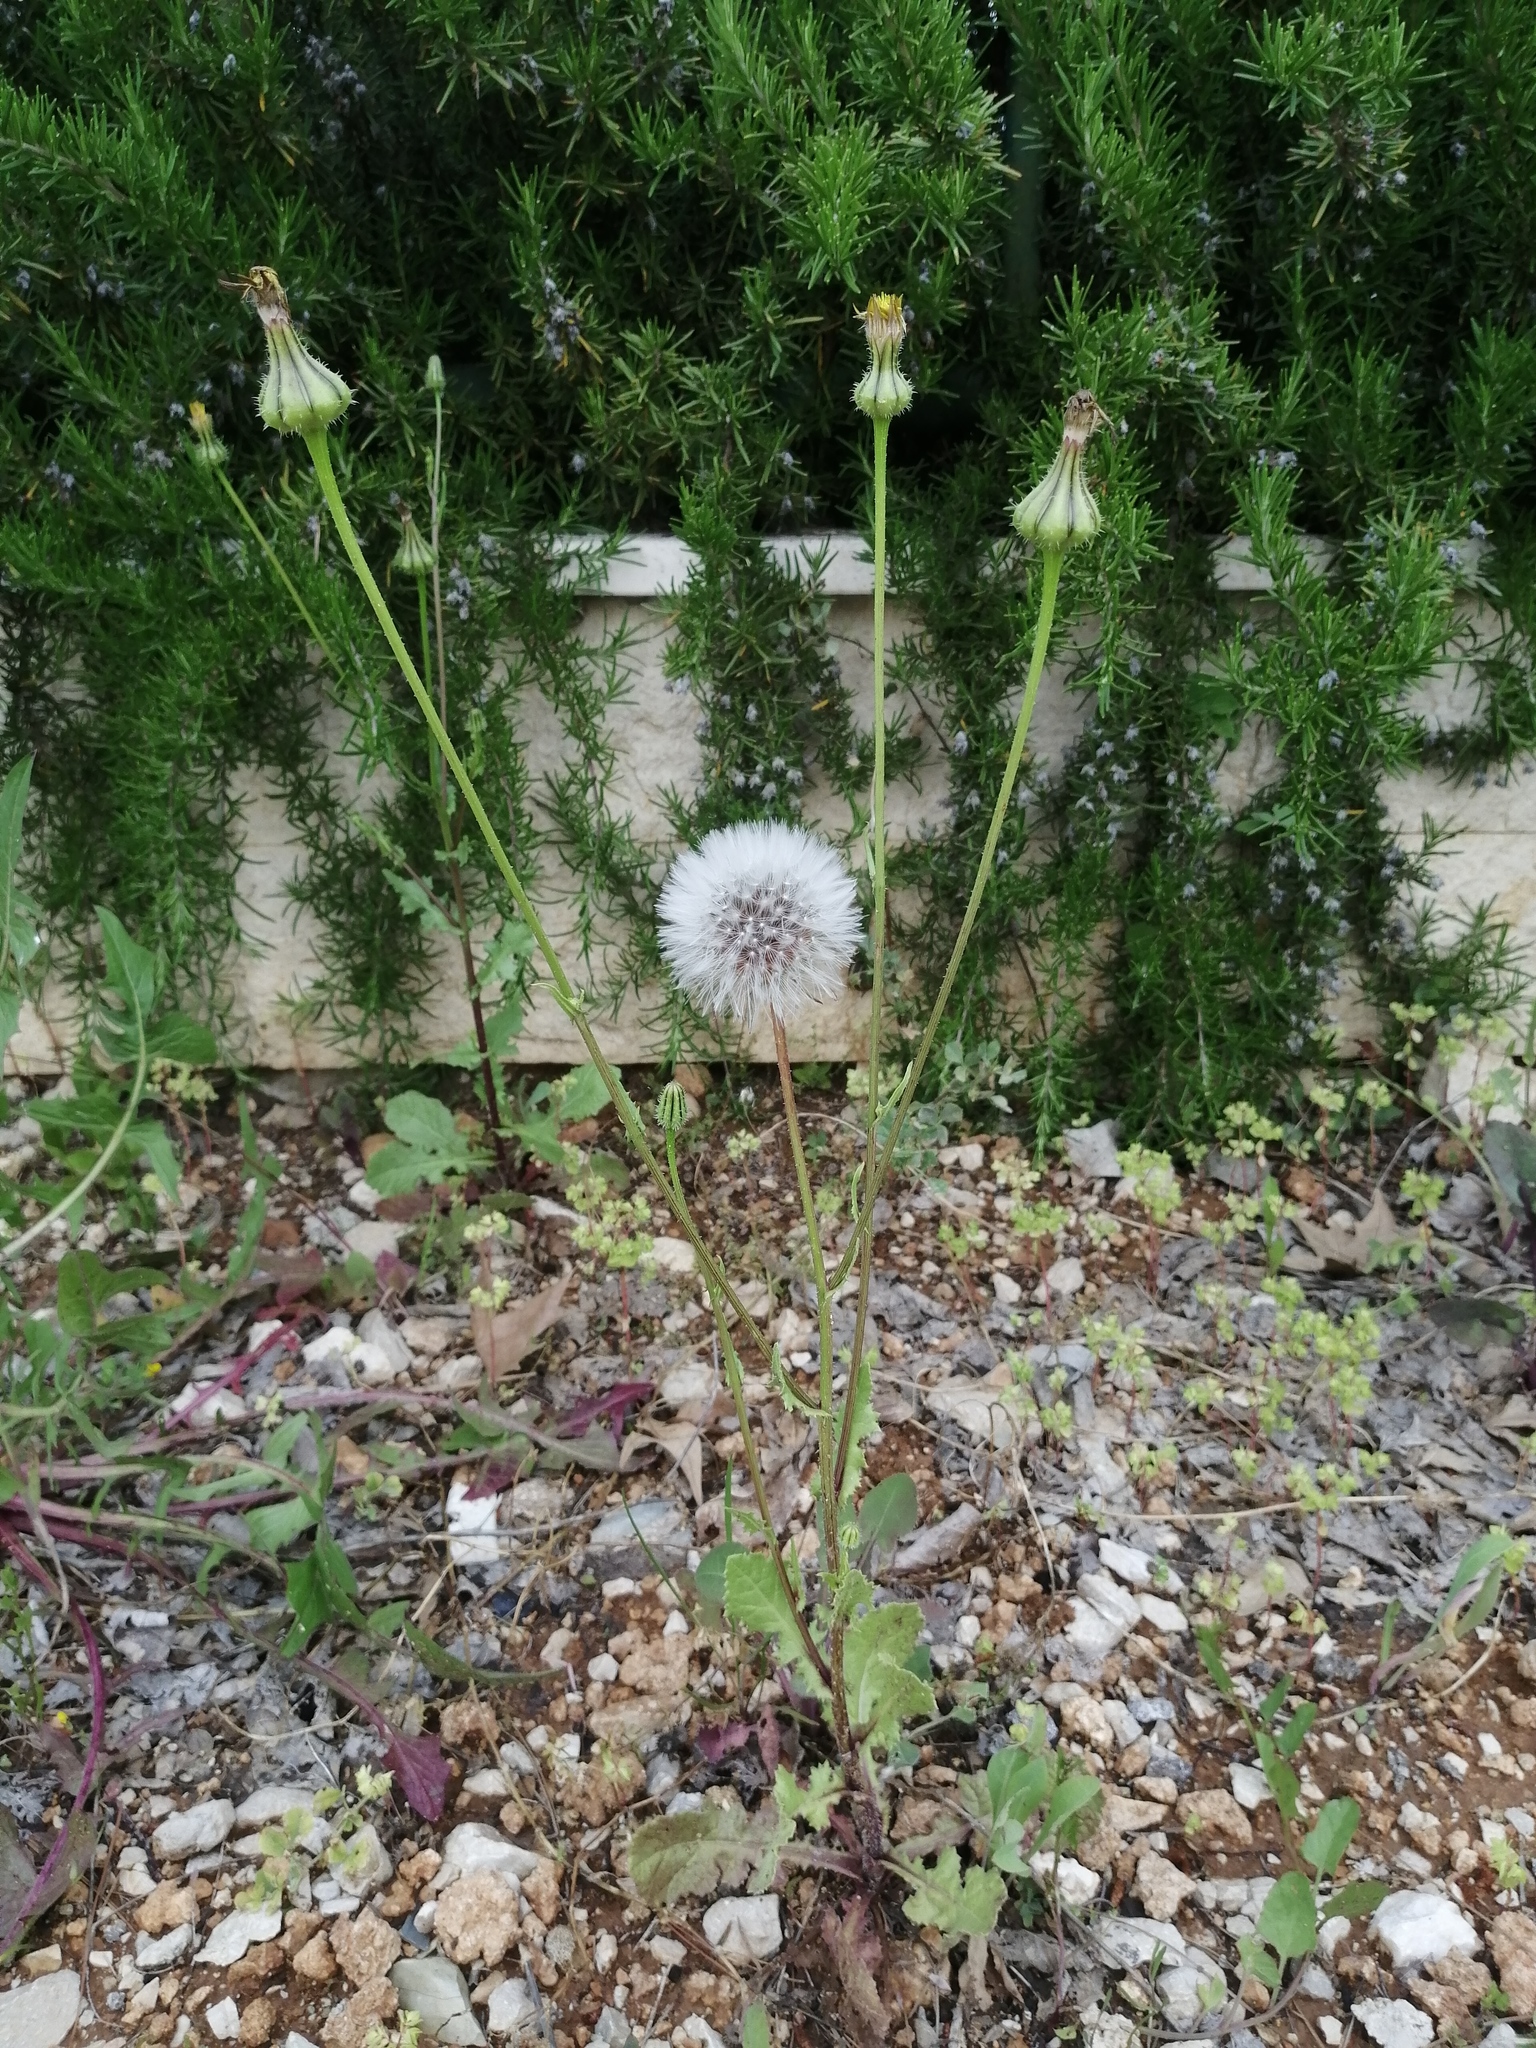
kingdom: Plantae
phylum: Tracheophyta
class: Magnoliopsida
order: Asterales
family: Asteraceae
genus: Urospermum
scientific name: Urospermum picroides
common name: False hawkbit
